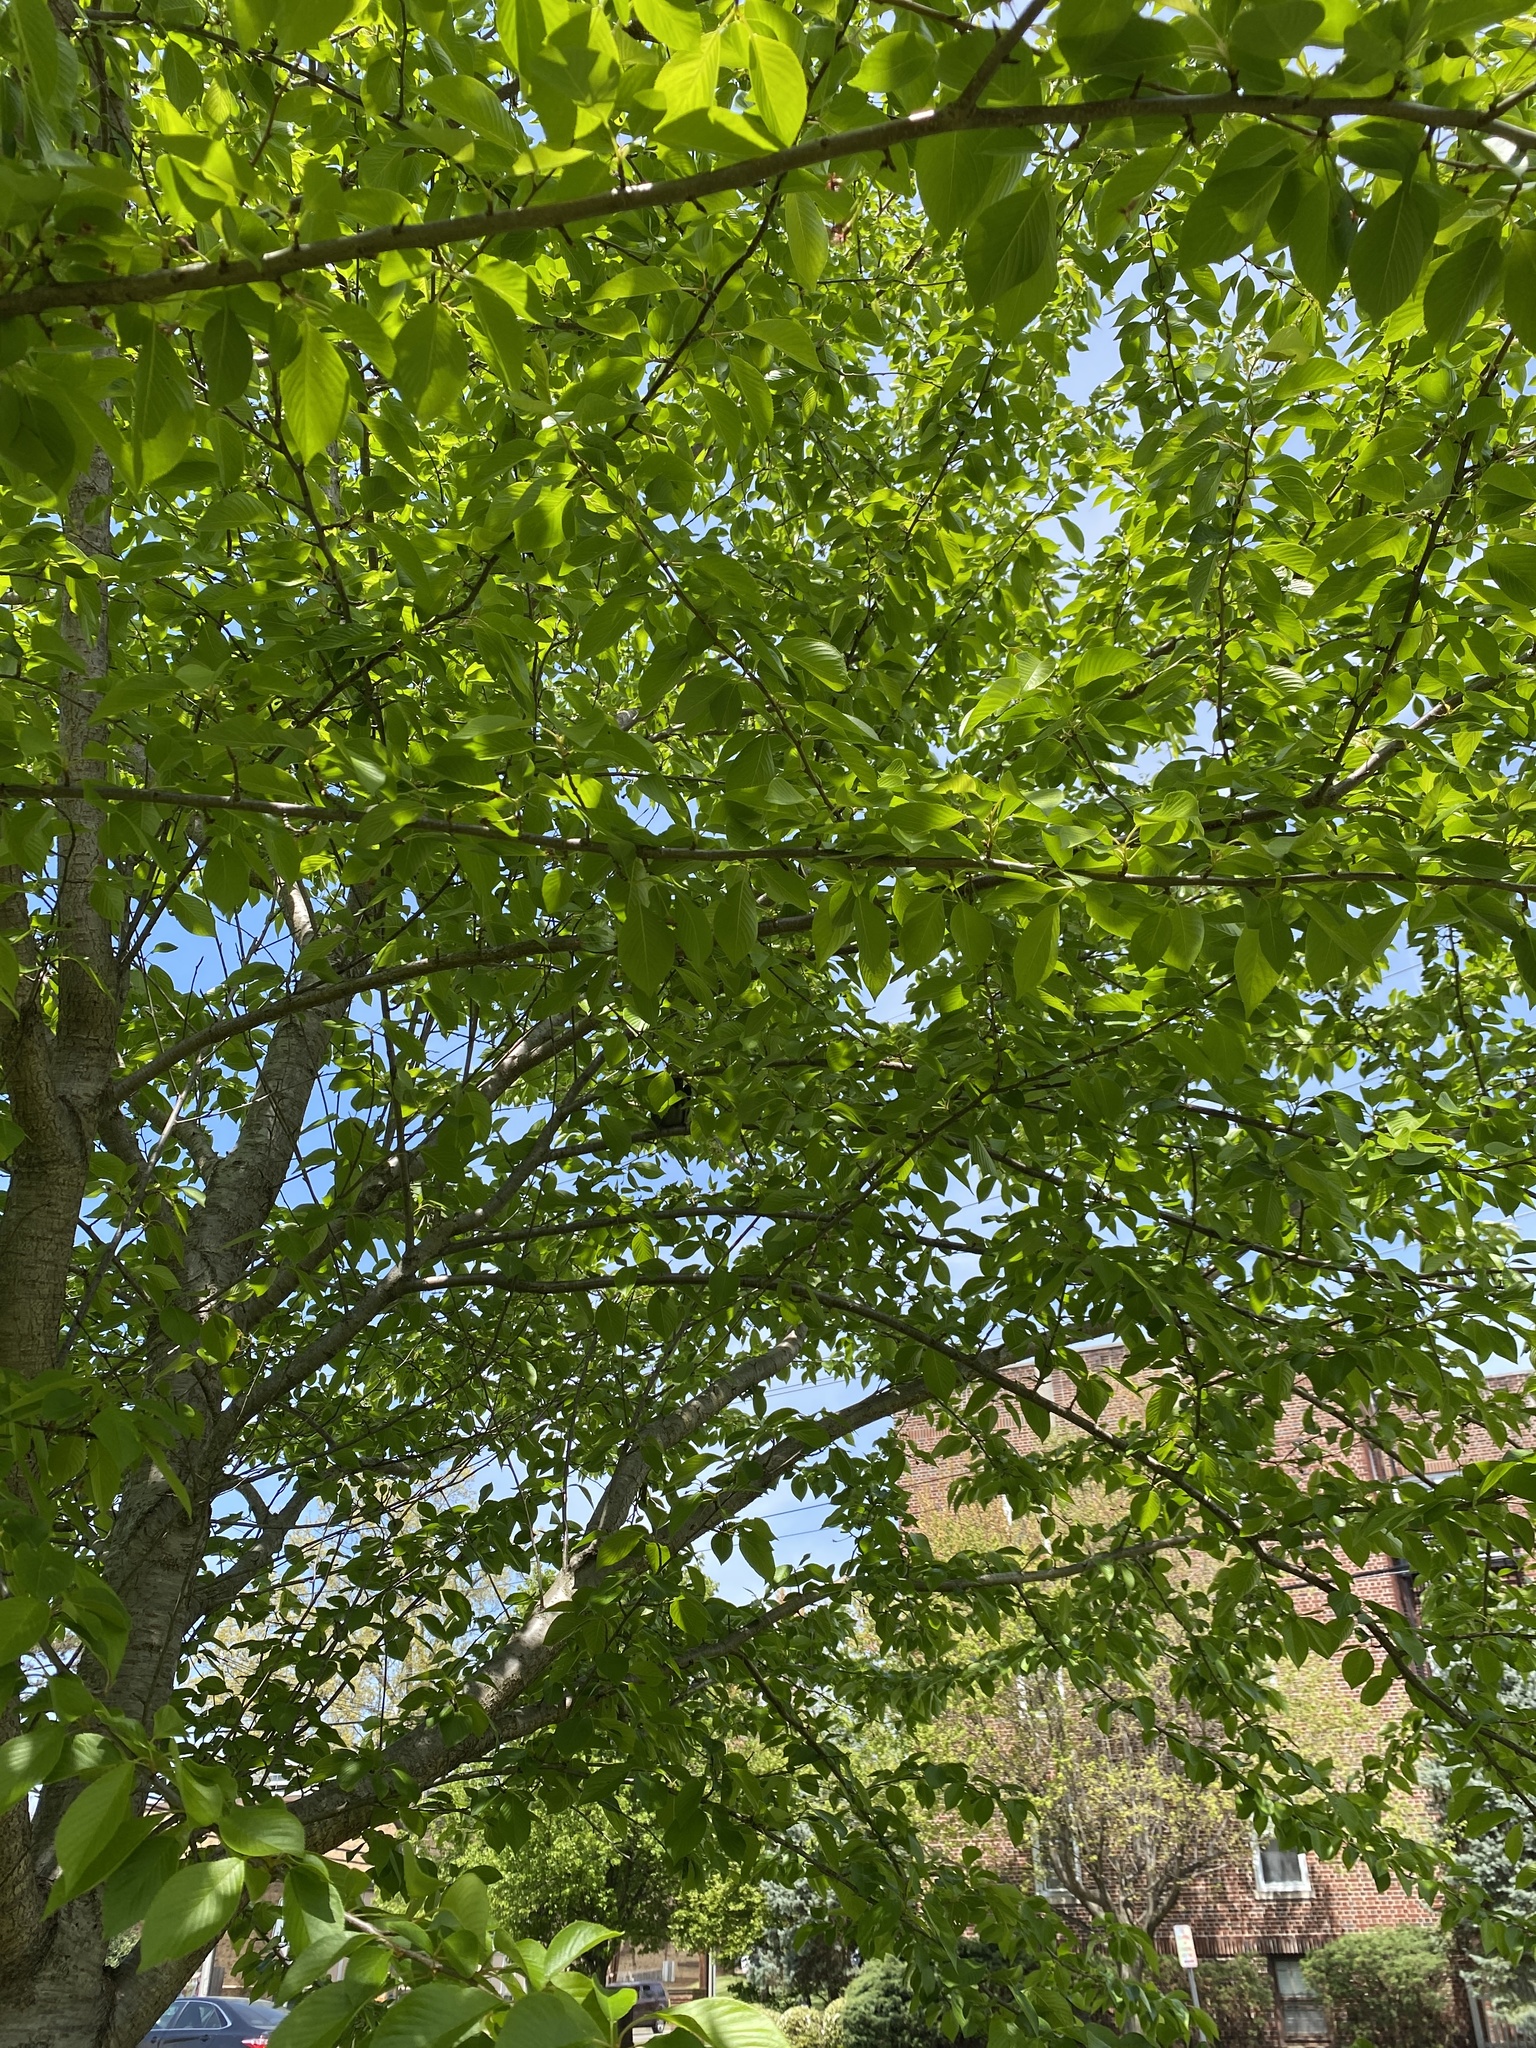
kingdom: Animalia
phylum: Chordata
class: Aves
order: Passeriformes
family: Mimidae
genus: Dumetella
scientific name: Dumetella carolinensis
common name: Gray catbird
